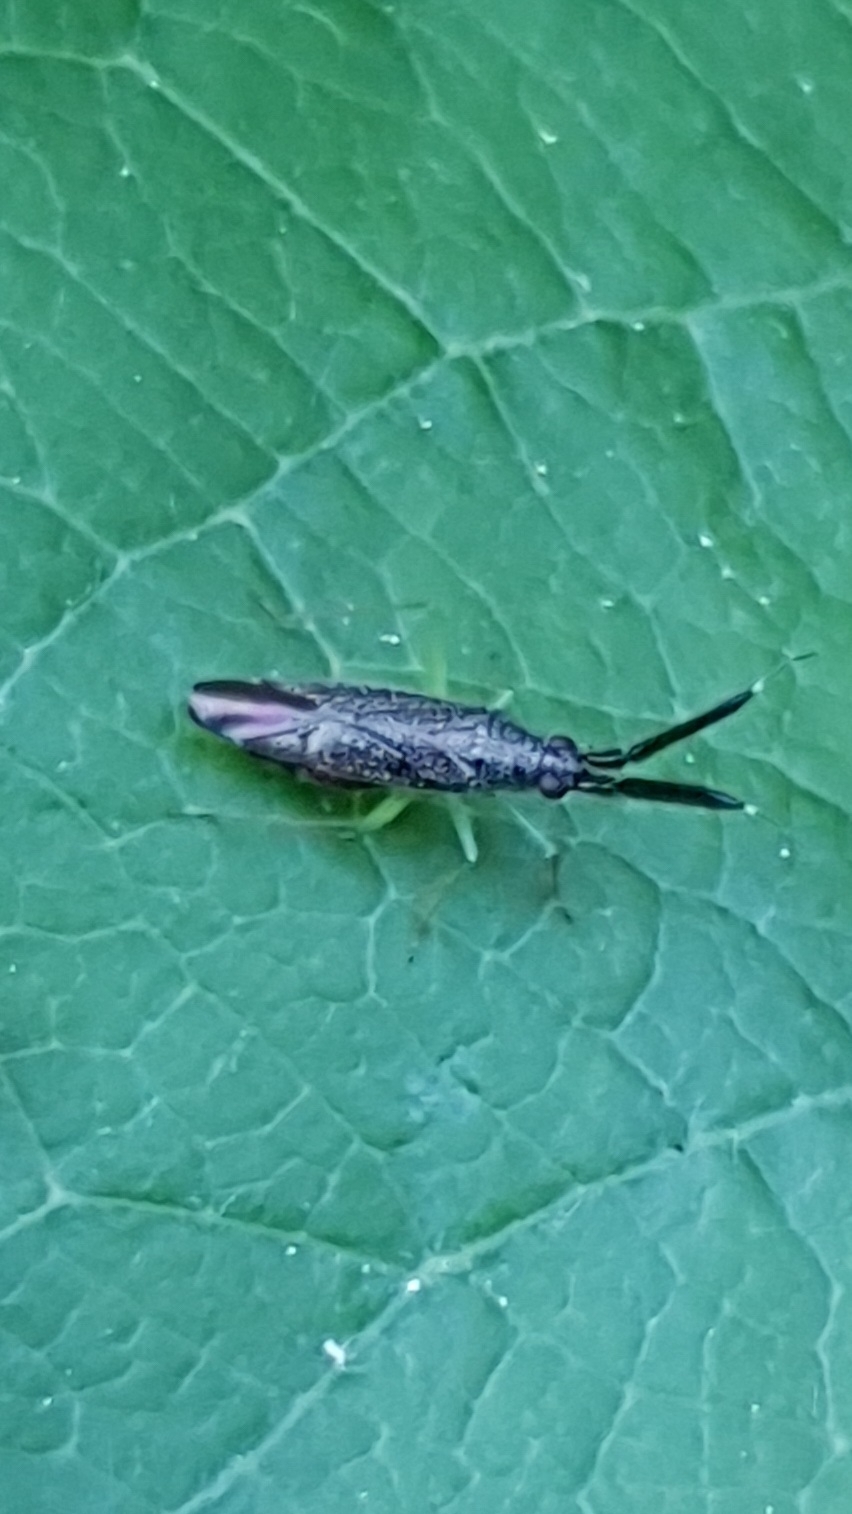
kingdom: Animalia
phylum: Arthropoda
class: Insecta
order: Hemiptera
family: Miridae
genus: Heterotoma
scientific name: Heterotoma planicornis
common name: Plant bug
